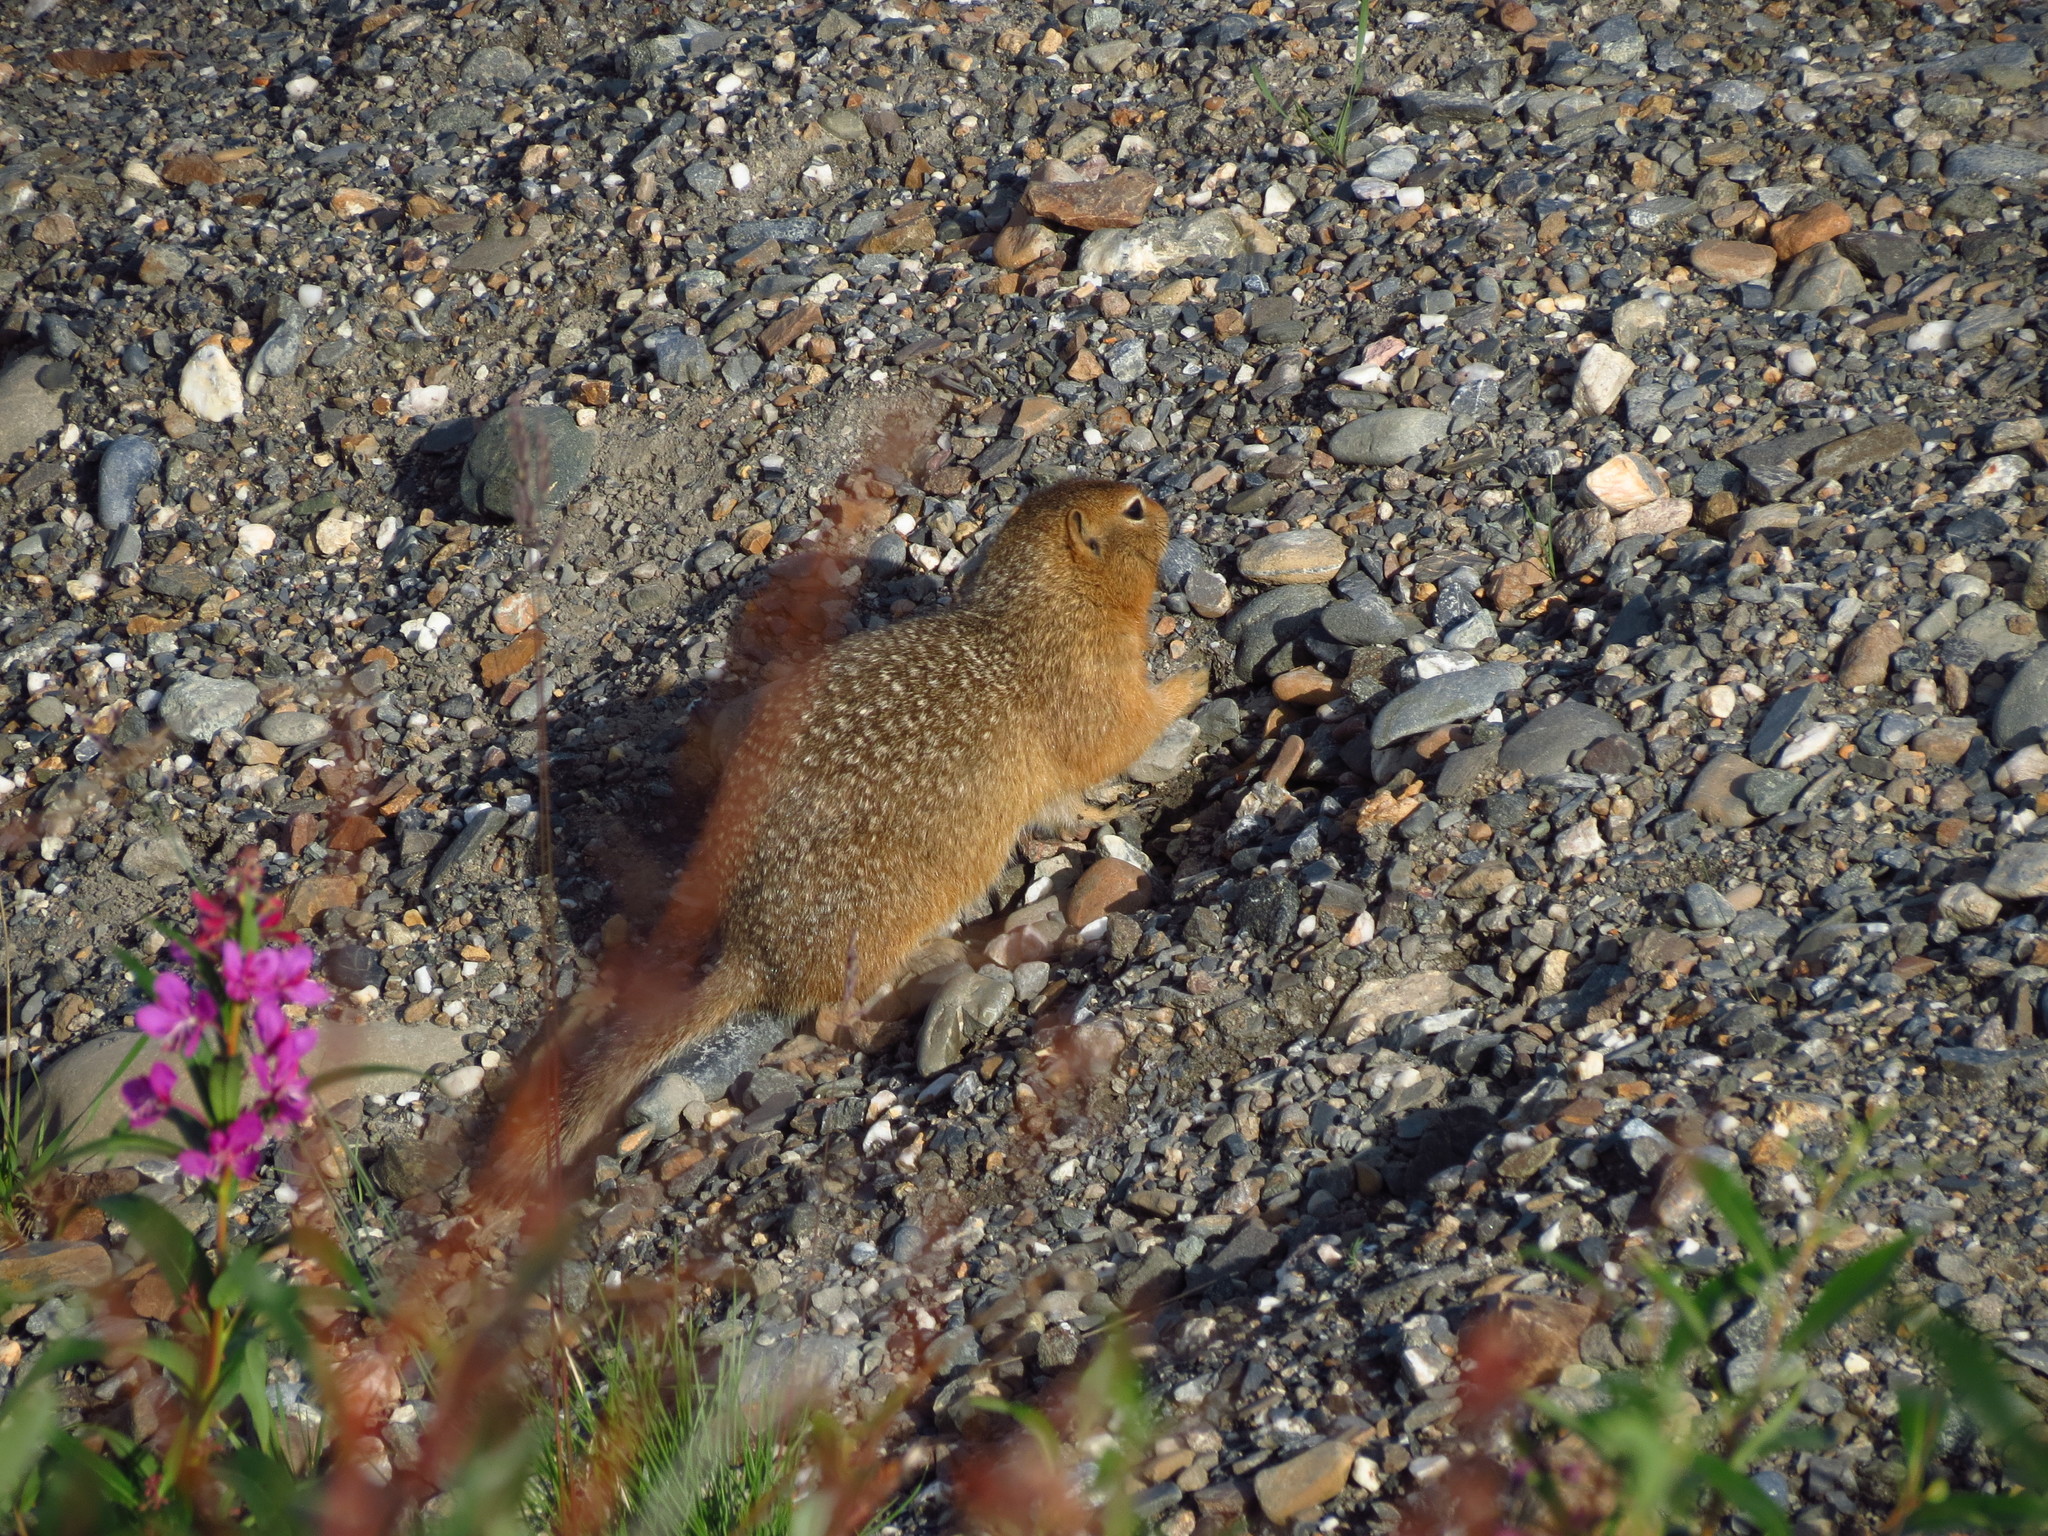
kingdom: Animalia
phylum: Chordata
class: Mammalia
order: Rodentia
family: Sciuridae
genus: Urocitellus
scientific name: Urocitellus parryii
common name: Arctic ground squirrel
